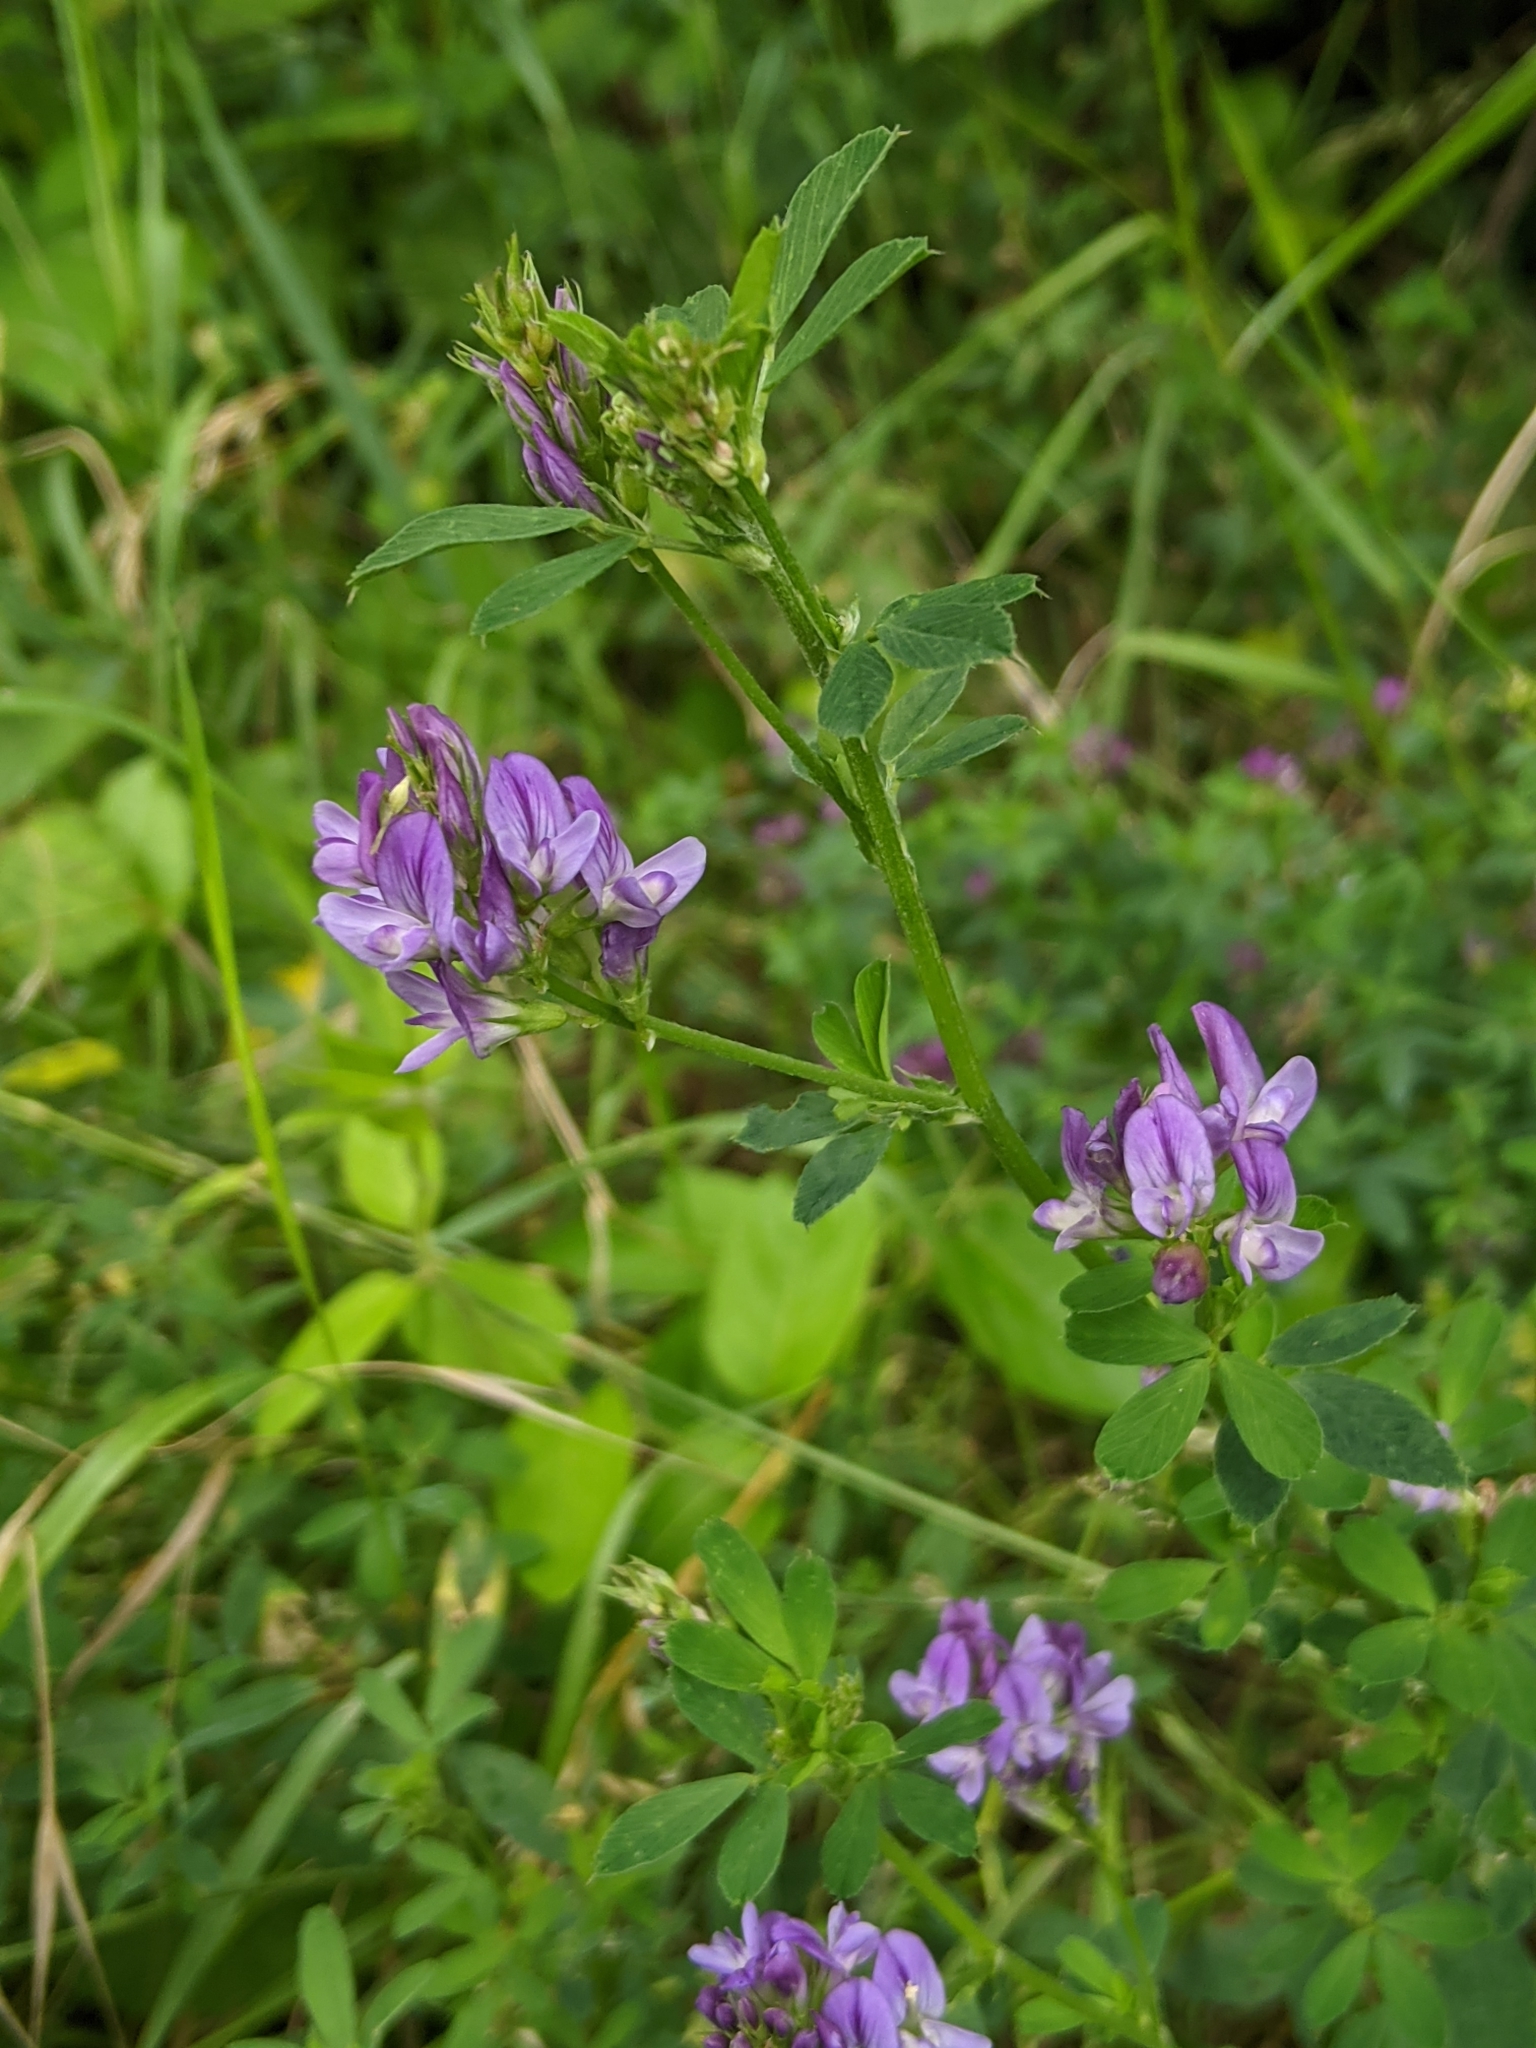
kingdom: Plantae
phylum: Tracheophyta
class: Magnoliopsida
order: Fabales
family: Fabaceae
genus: Medicago
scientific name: Medicago sativa
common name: Alfalfa
